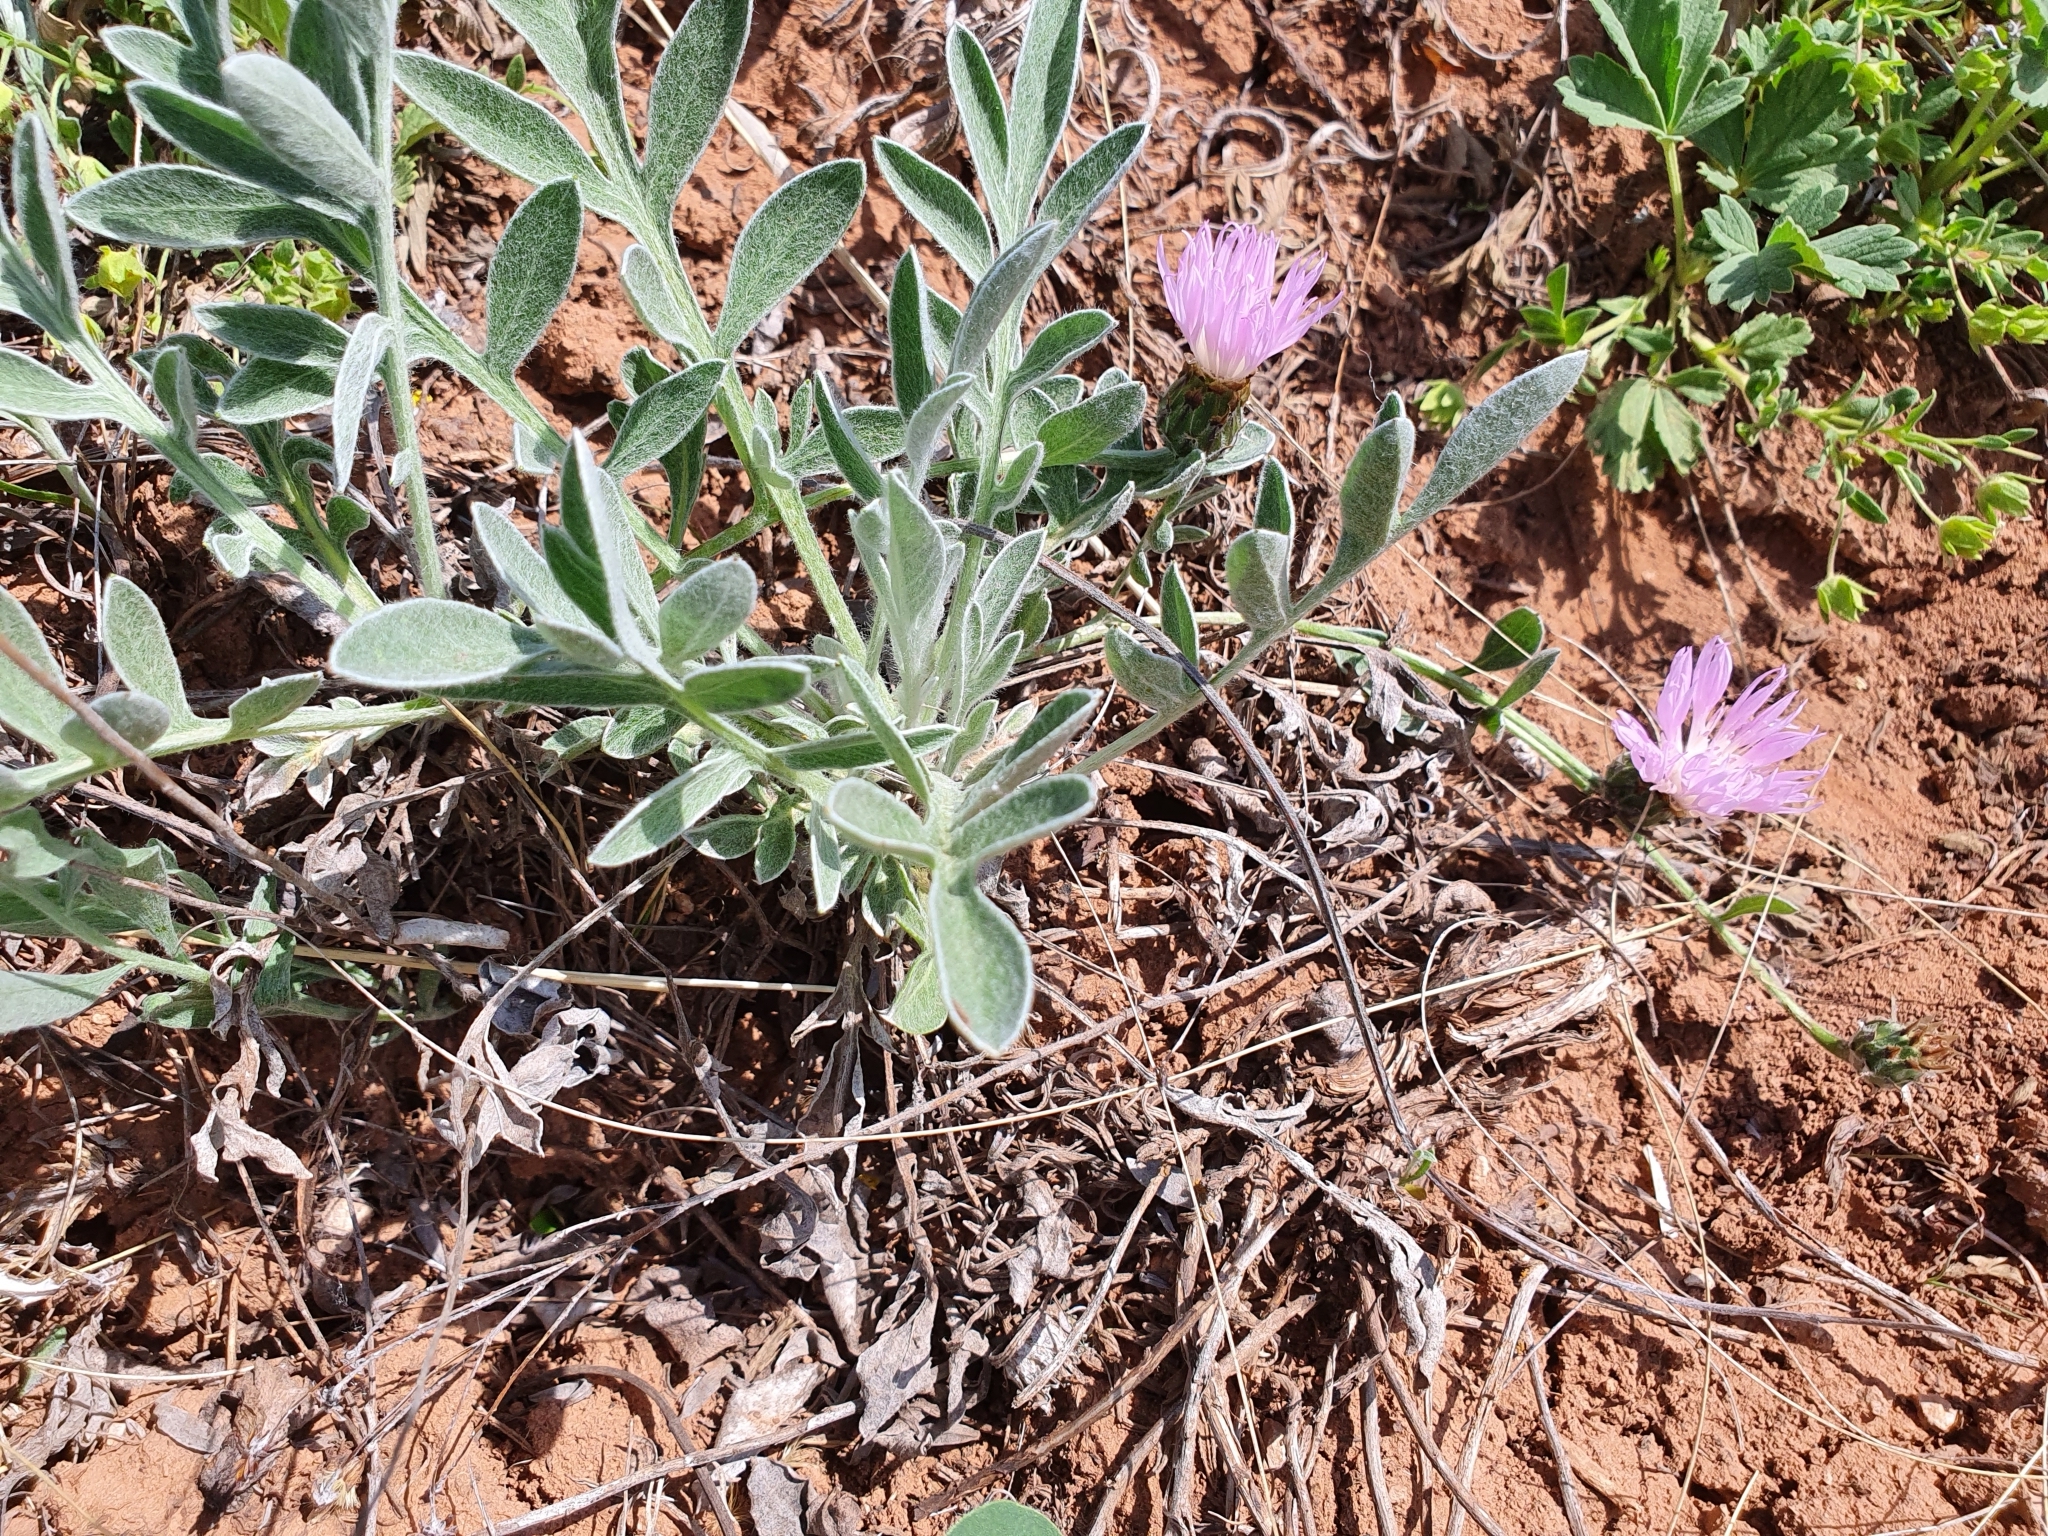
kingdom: Plantae
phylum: Tracheophyta
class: Magnoliopsida
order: Asterales
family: Asteraceae
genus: Psephellus
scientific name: Psephellus marschallianus
